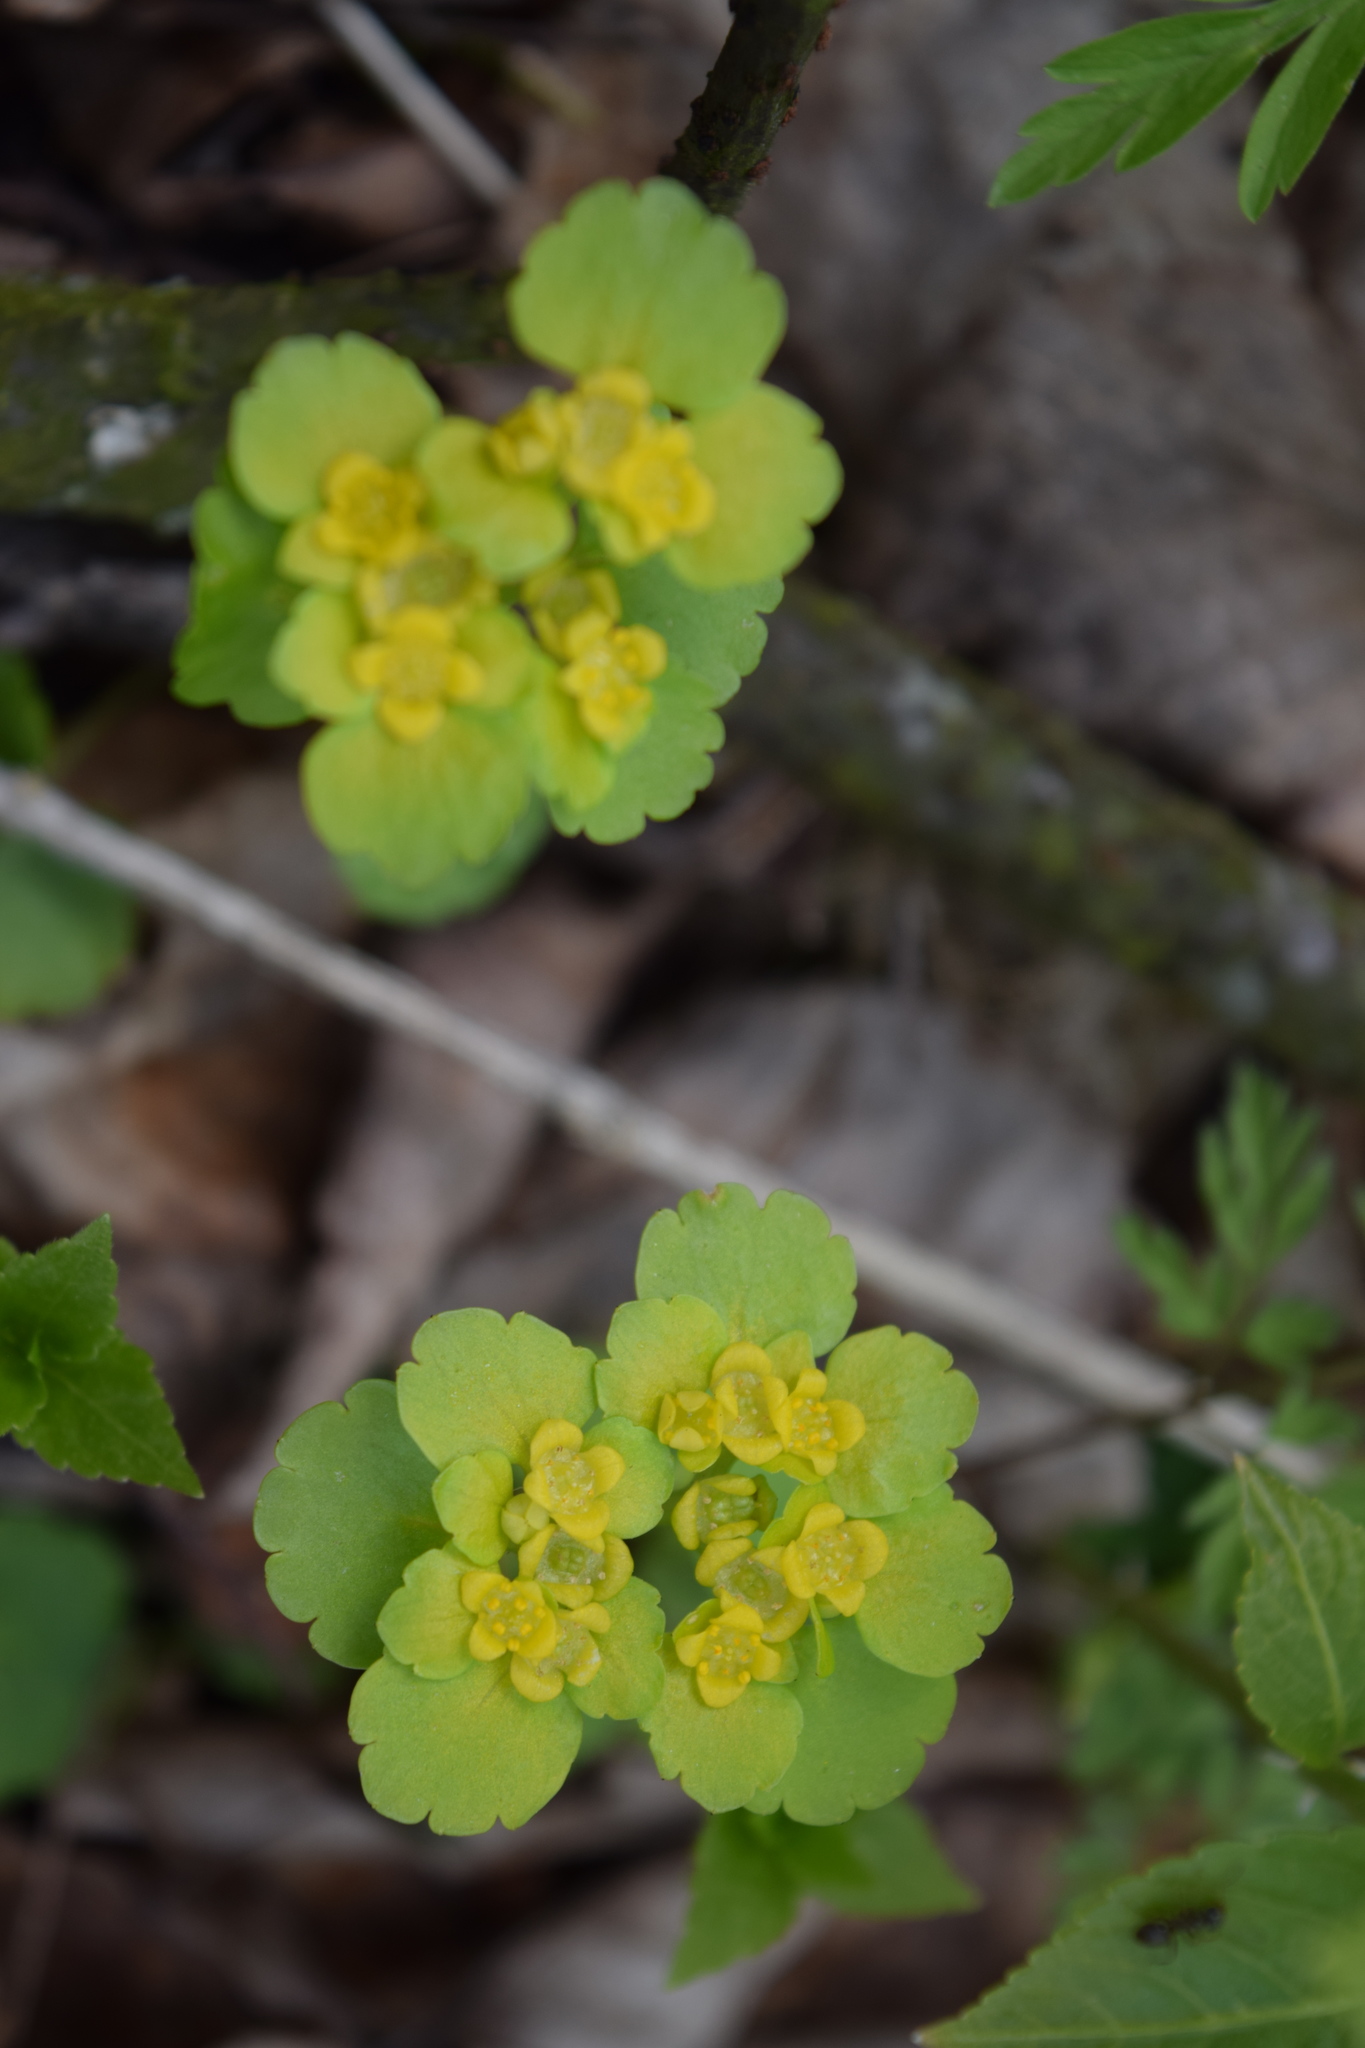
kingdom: Plantae
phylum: Tracheophyta
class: Magnoliopsida
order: Saxifragales
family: Saxifragaceae
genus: Chrysosplenium
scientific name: Chrysosplenium alternifolium
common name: Alternate-leaved golden-saxifrage
